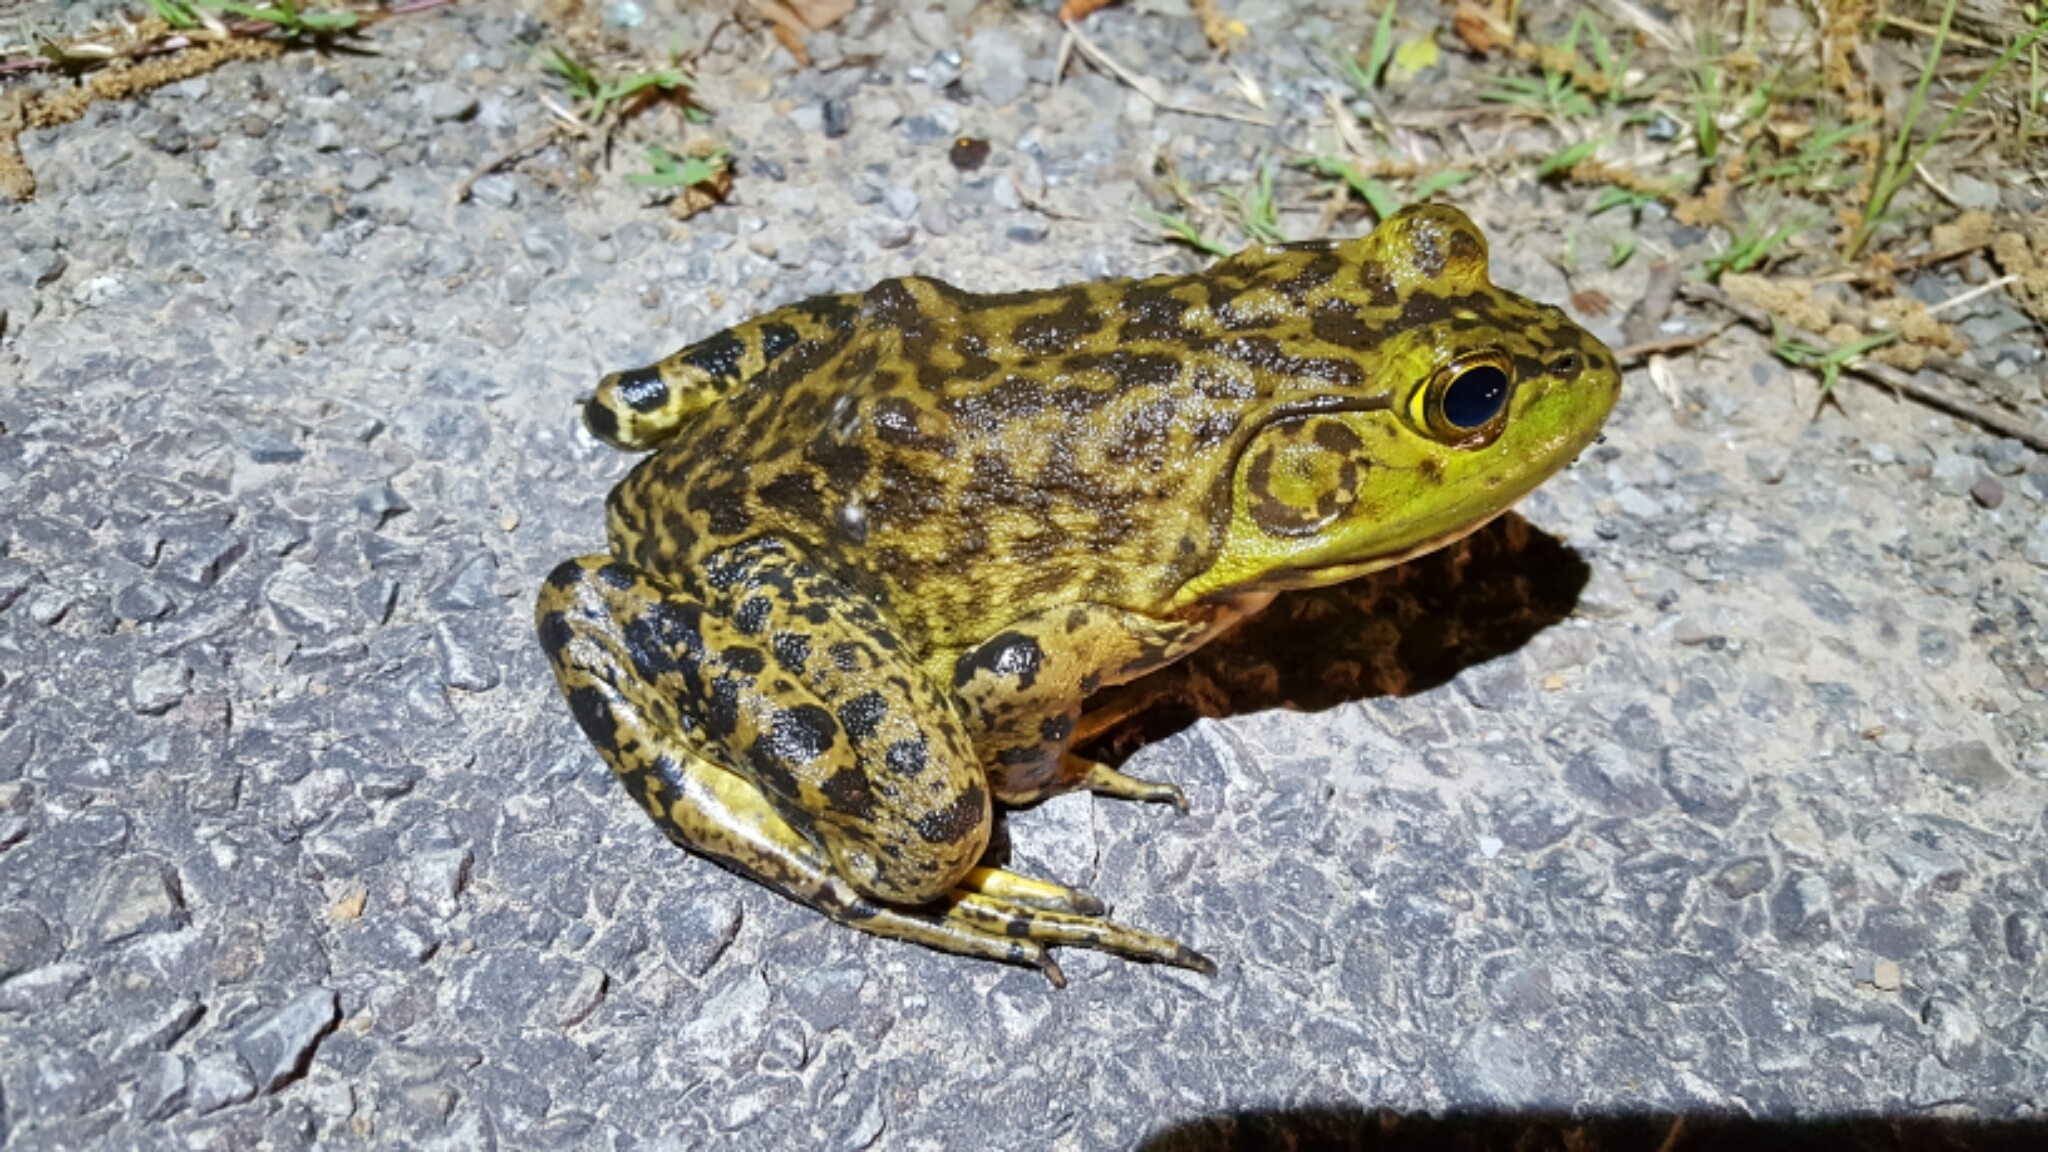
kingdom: Animalia
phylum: Chordata
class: Amphibia
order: Anura
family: Ranidae
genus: Lithobates
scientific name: Lithobates catesbeianus
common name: American bullfrog
